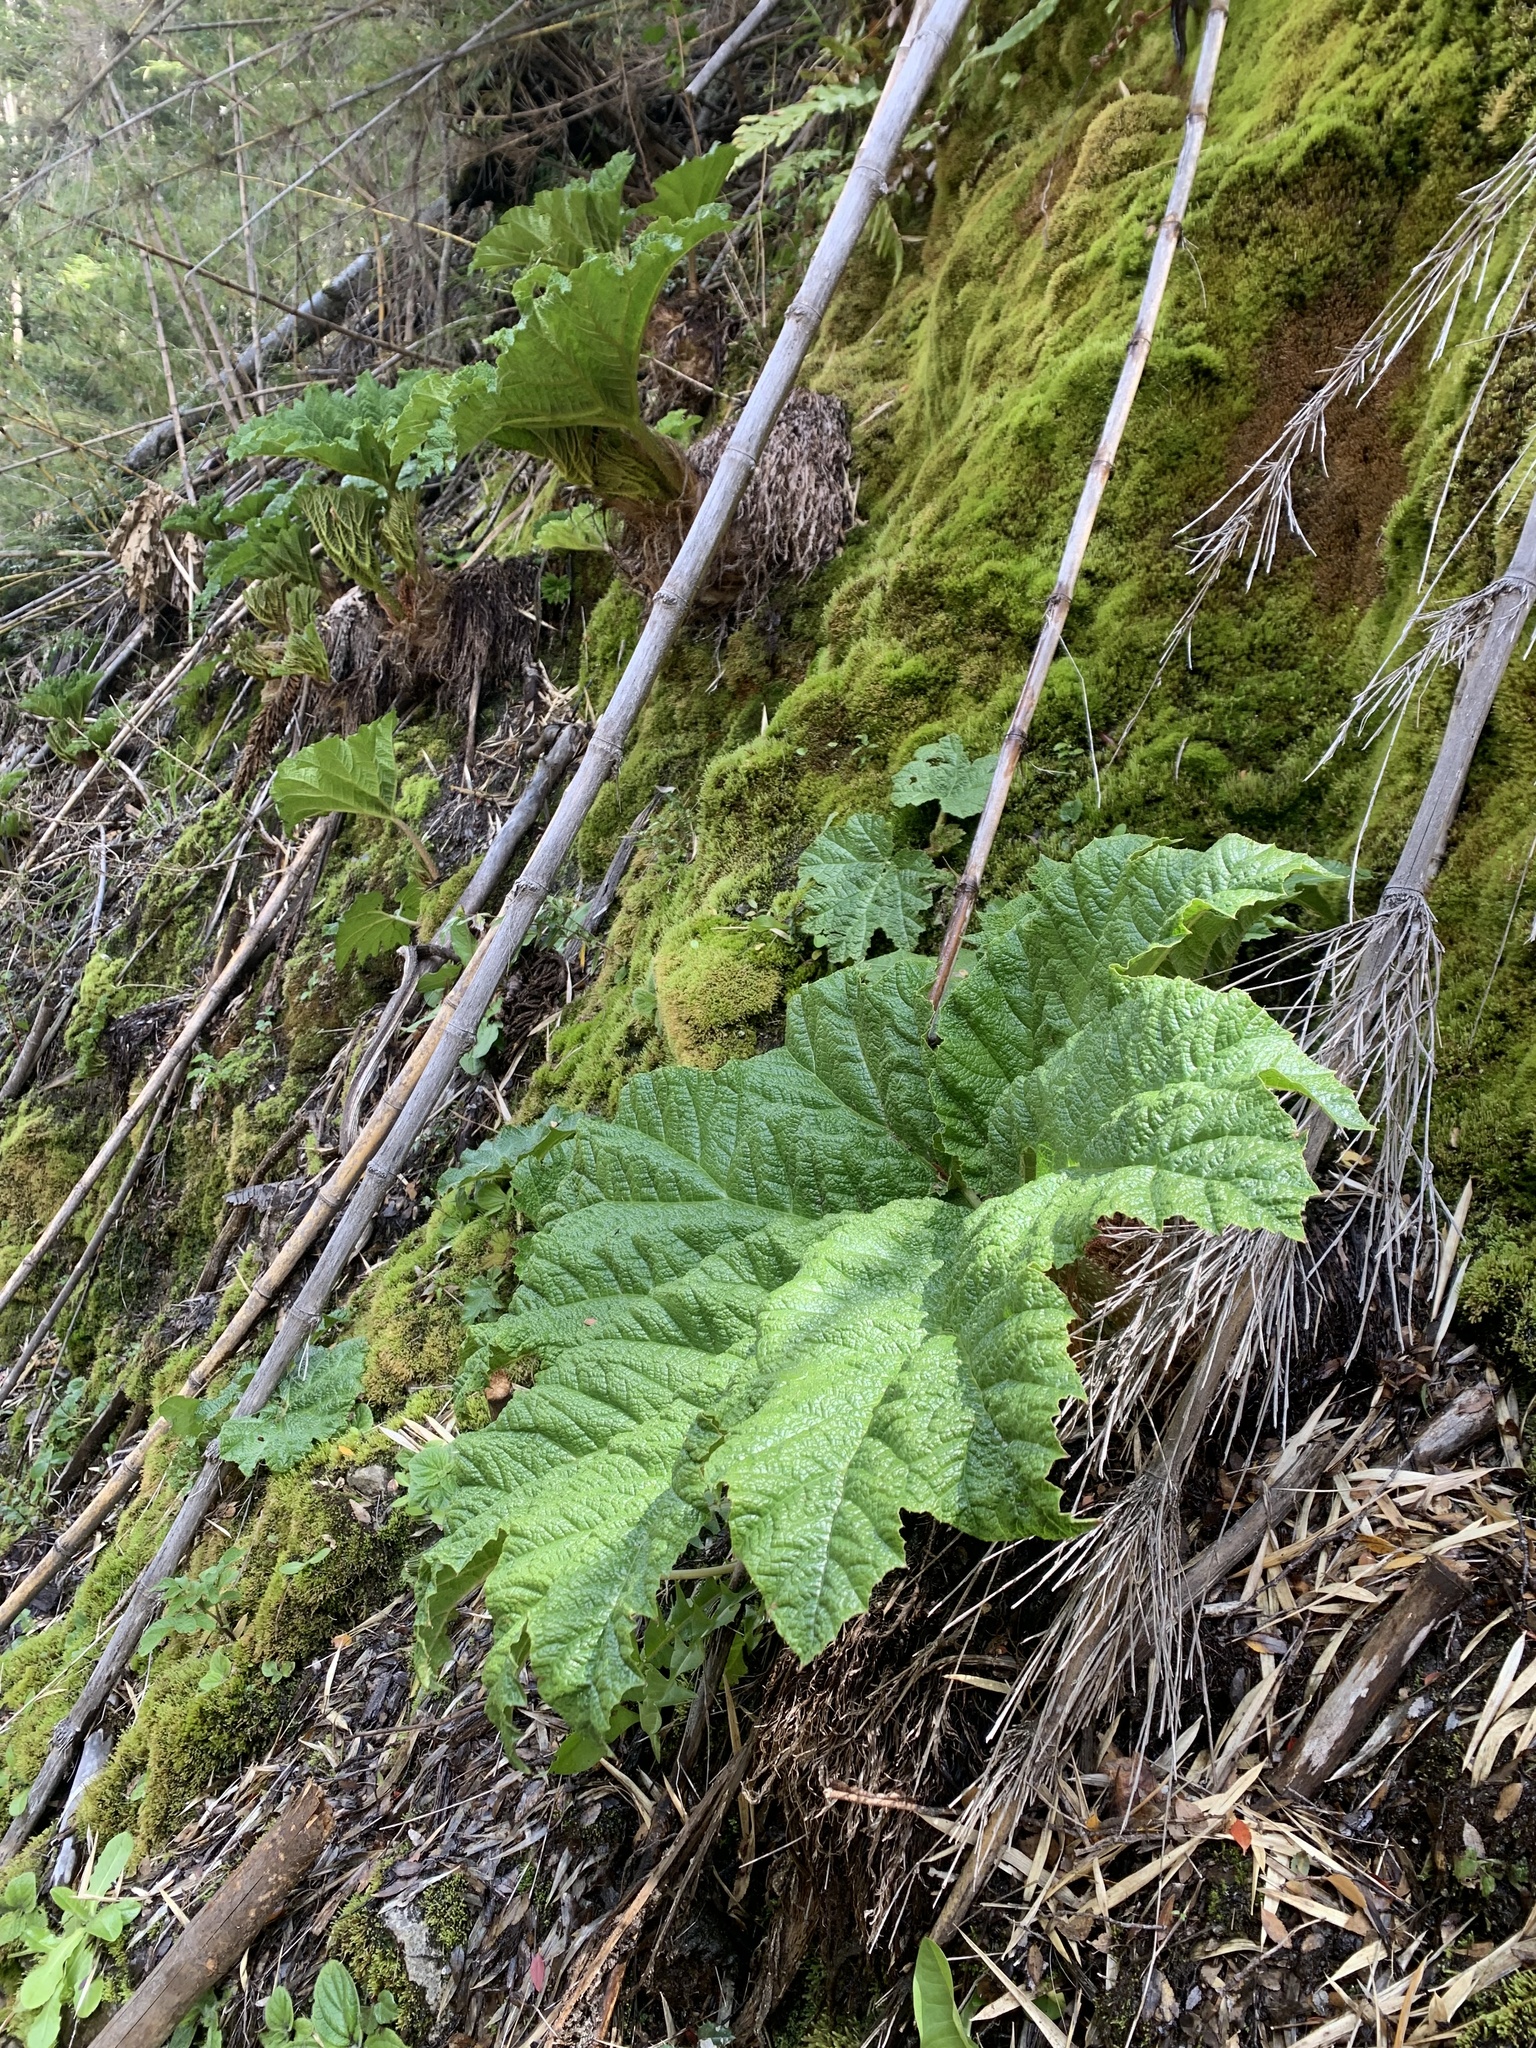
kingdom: Plantae
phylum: Tracheophyta
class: Magnoliopsida
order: Gunnerales
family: Gunneraceae
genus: Gunnera
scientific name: Gunnera tinctoria
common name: Giant-rhubarb
